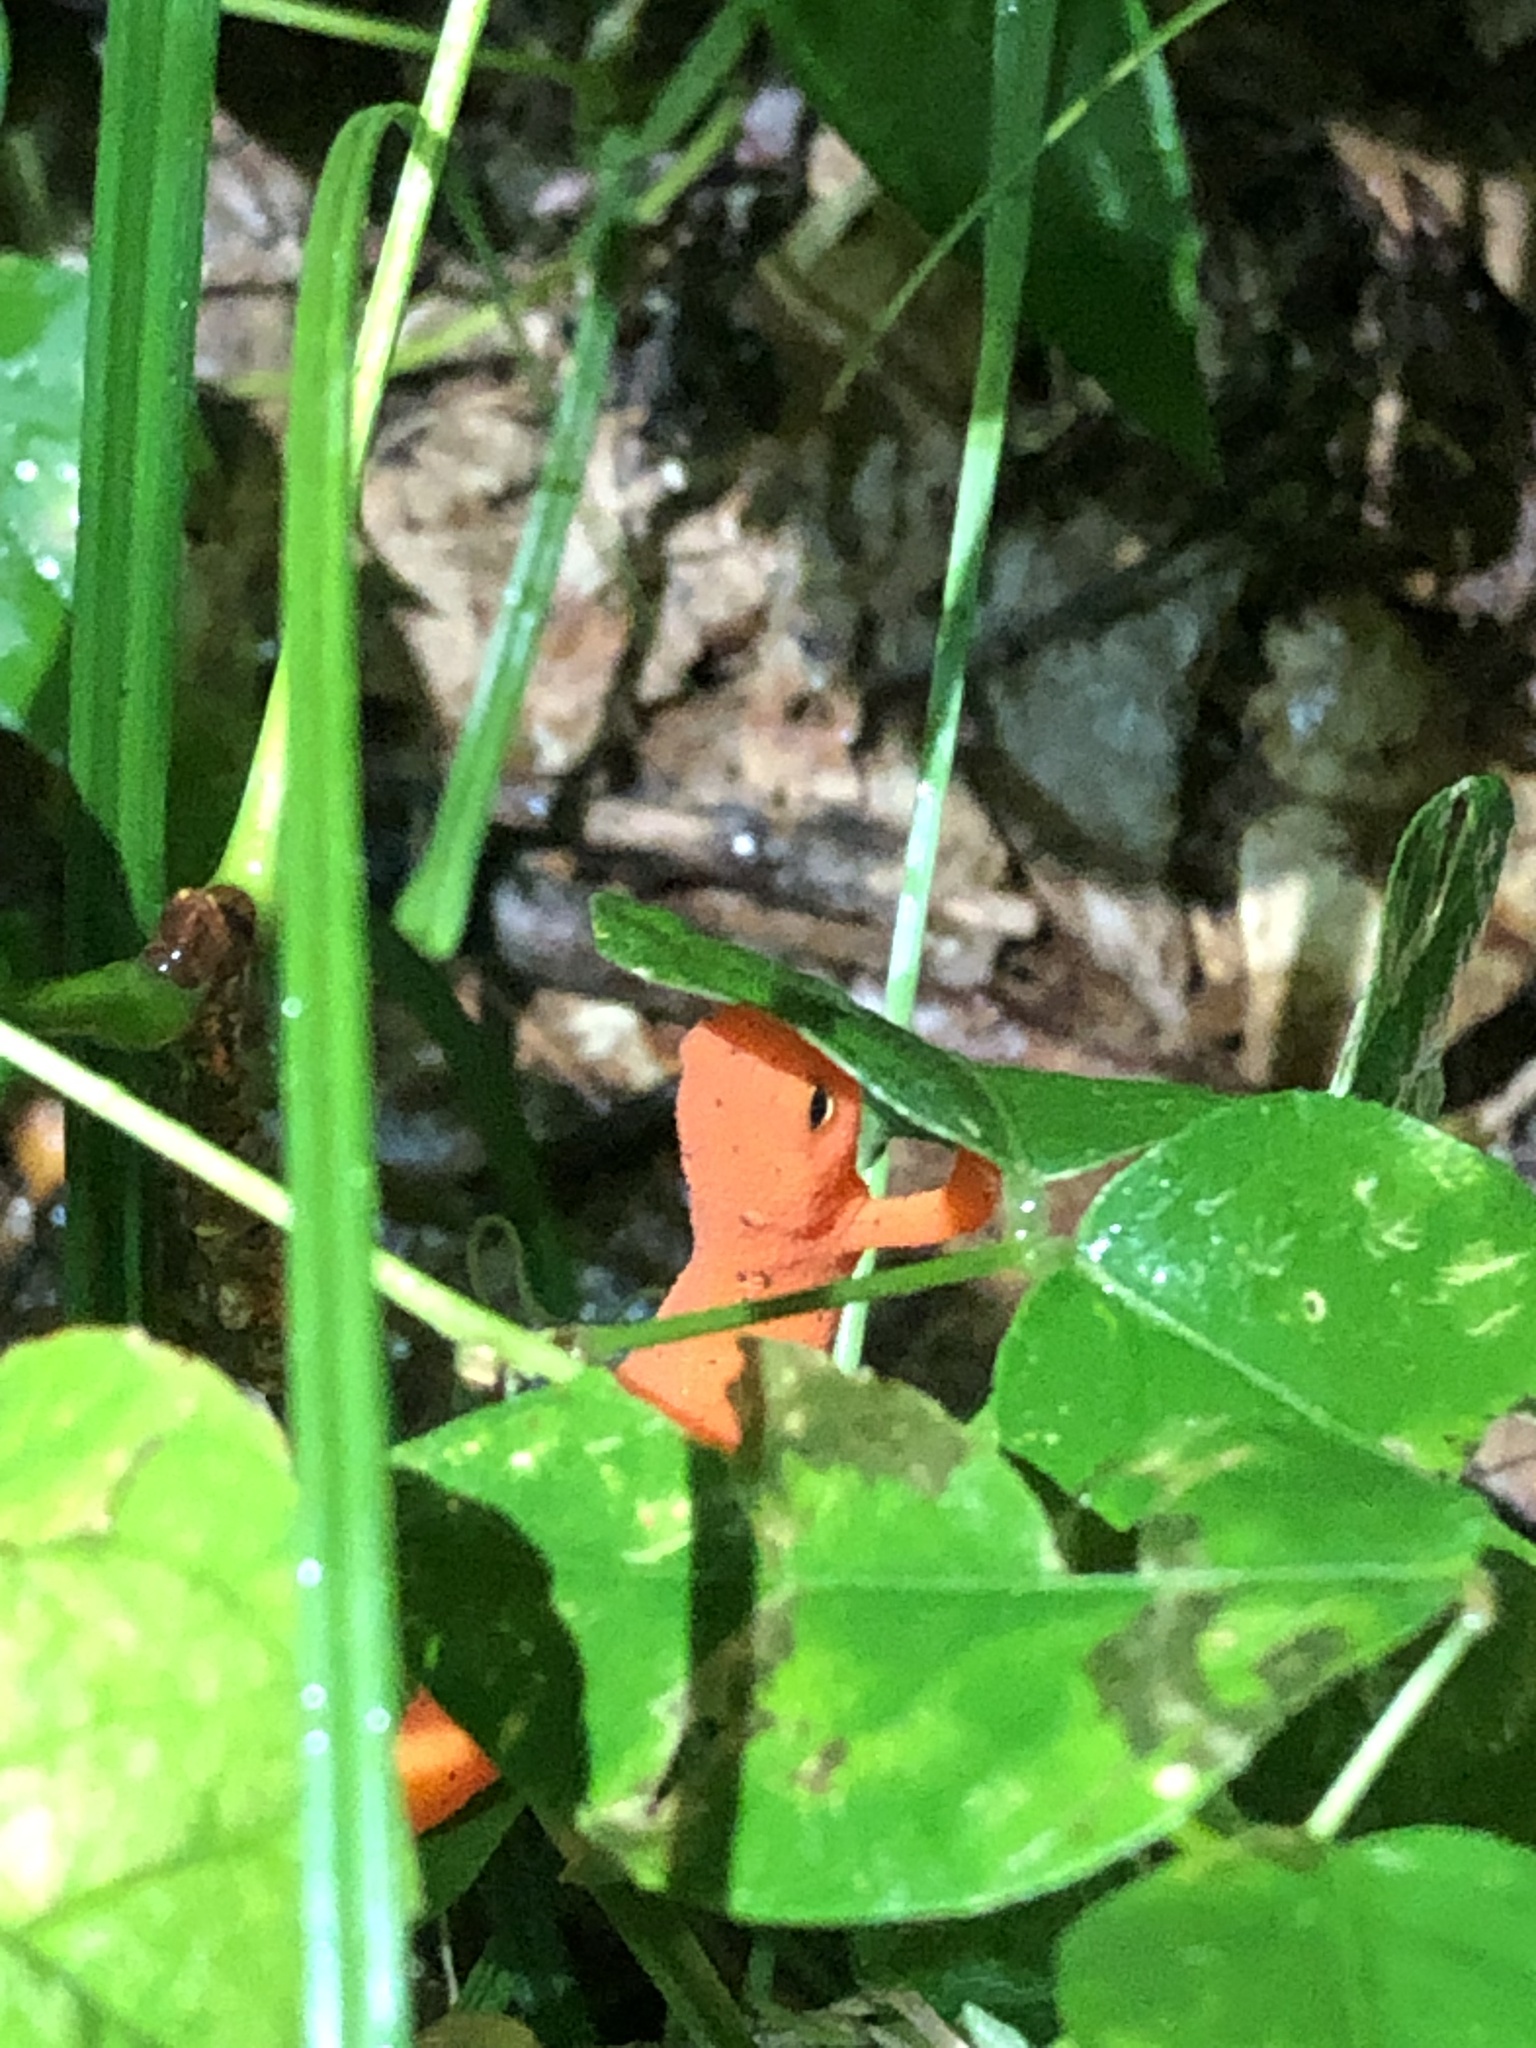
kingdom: Animalia
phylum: Chordata
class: Amphibia
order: Caudata
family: Salamandridae
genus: Notophthalmus
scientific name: Notophthalmus viridescens
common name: Eastern newt
